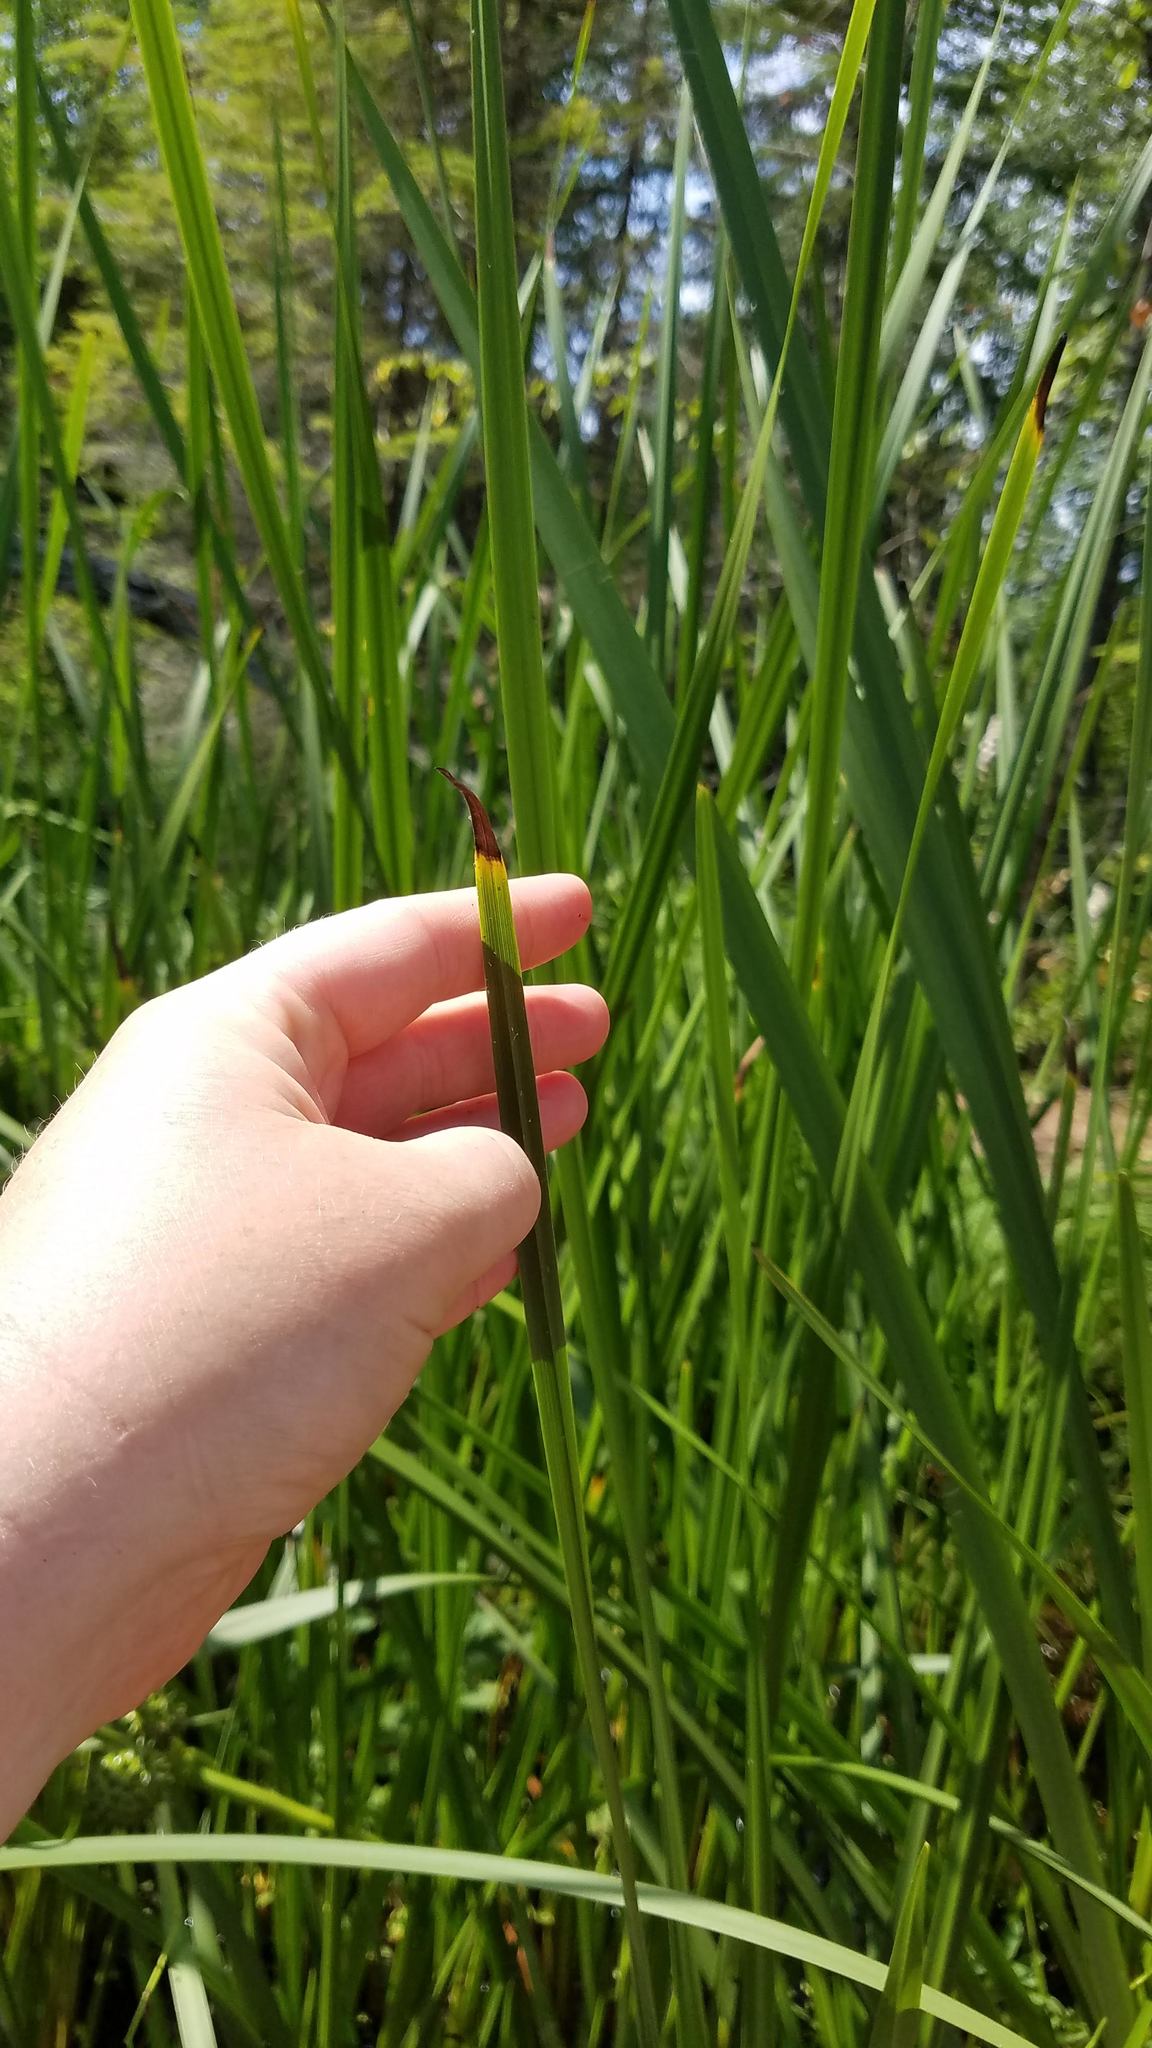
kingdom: Plantae
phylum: Tracheophyta
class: Liliopsida
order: Poales
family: Typhaceae
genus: Sparganium
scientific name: Sparganium eurycarpum
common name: Broad-fruited burreed
